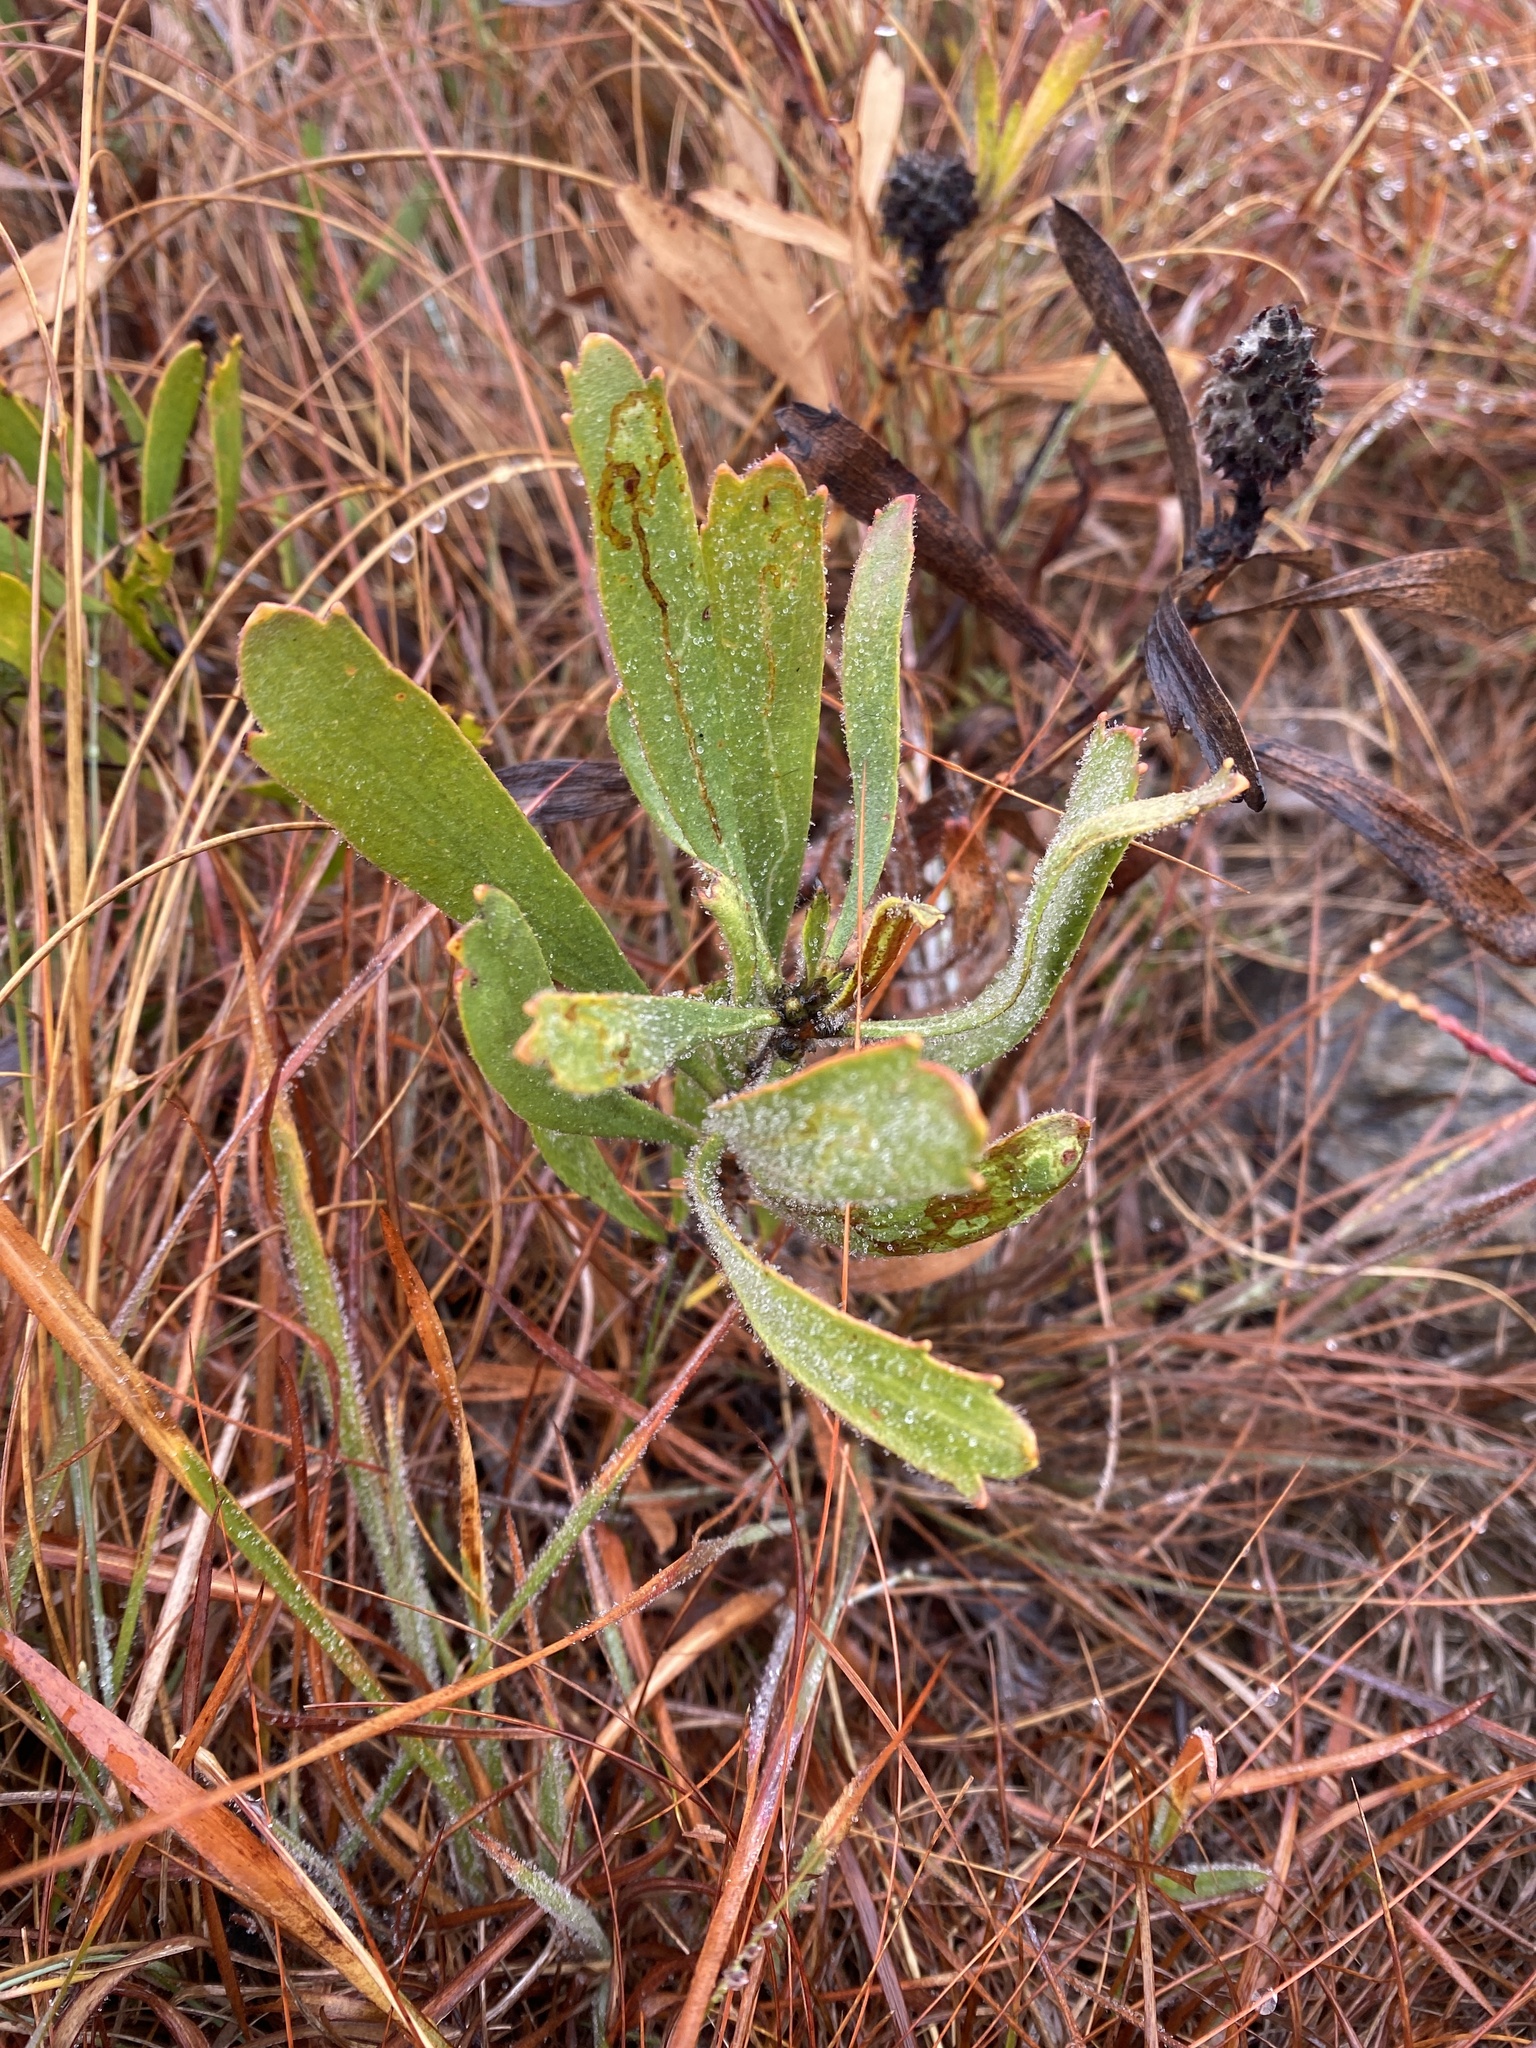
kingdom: Plantae
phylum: Tracheophyta
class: Magnoliopsida
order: Proteales
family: Proteaceae
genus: Leucospermum
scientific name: Leucospermum gerrardii
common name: Soapstone pincushion
